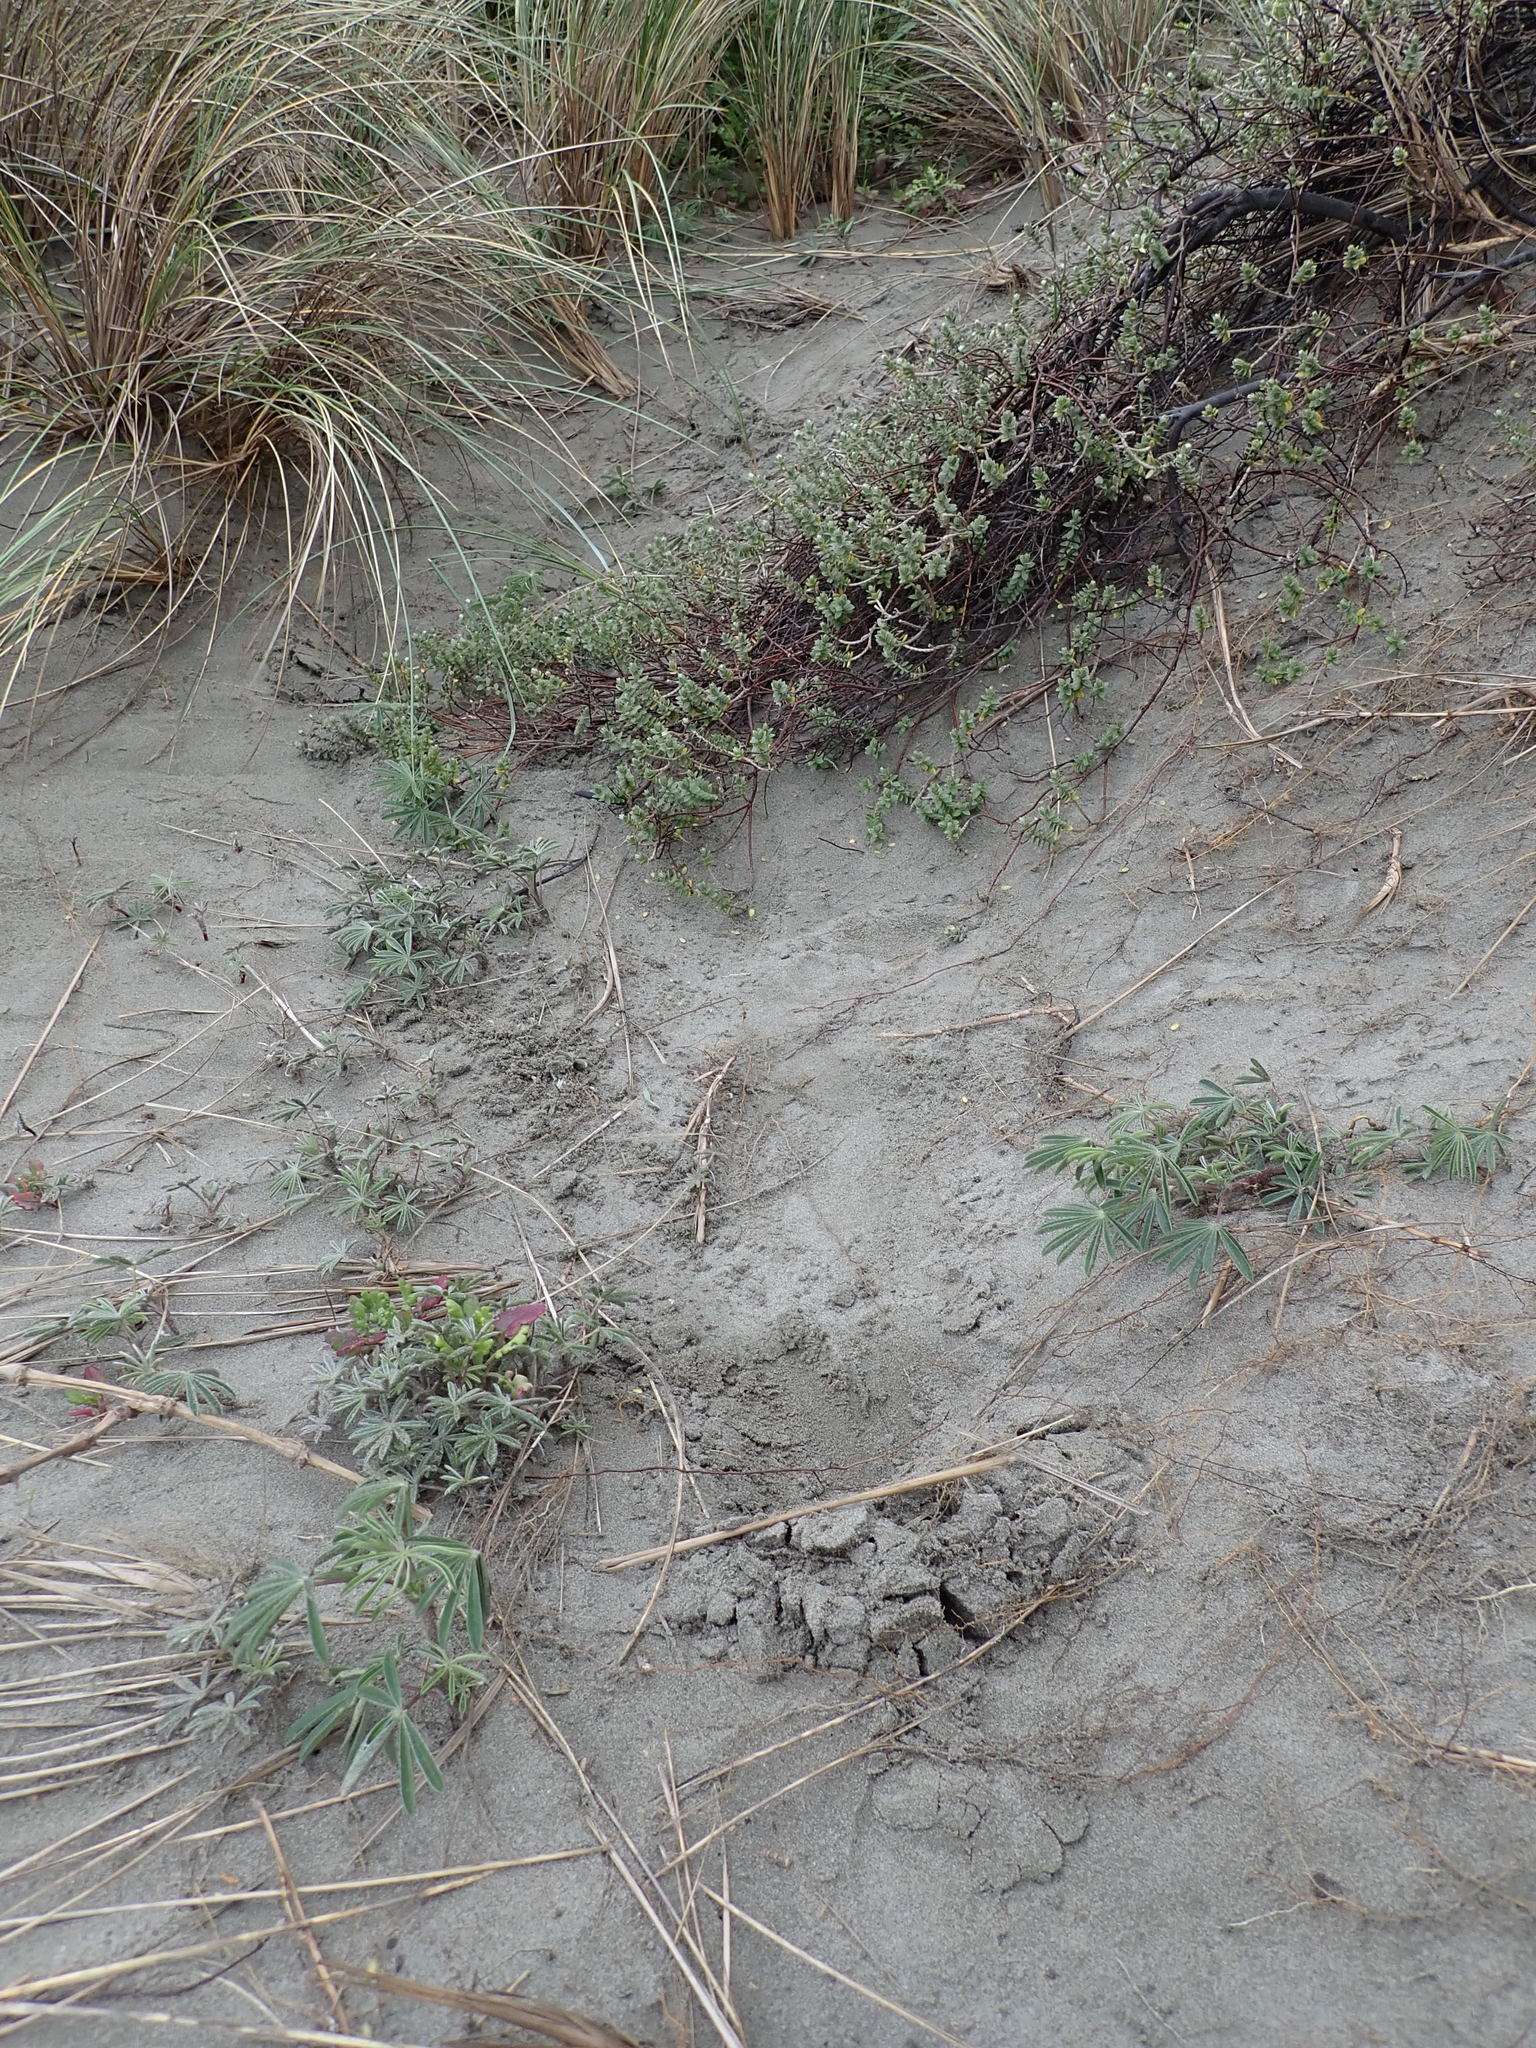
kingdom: Plantae
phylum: Tracheophyta
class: Magnoliopsida
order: Fabales
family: Fabaceae
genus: Lupinus
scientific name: Lupinus arboreus
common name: Yellow bush lupine
